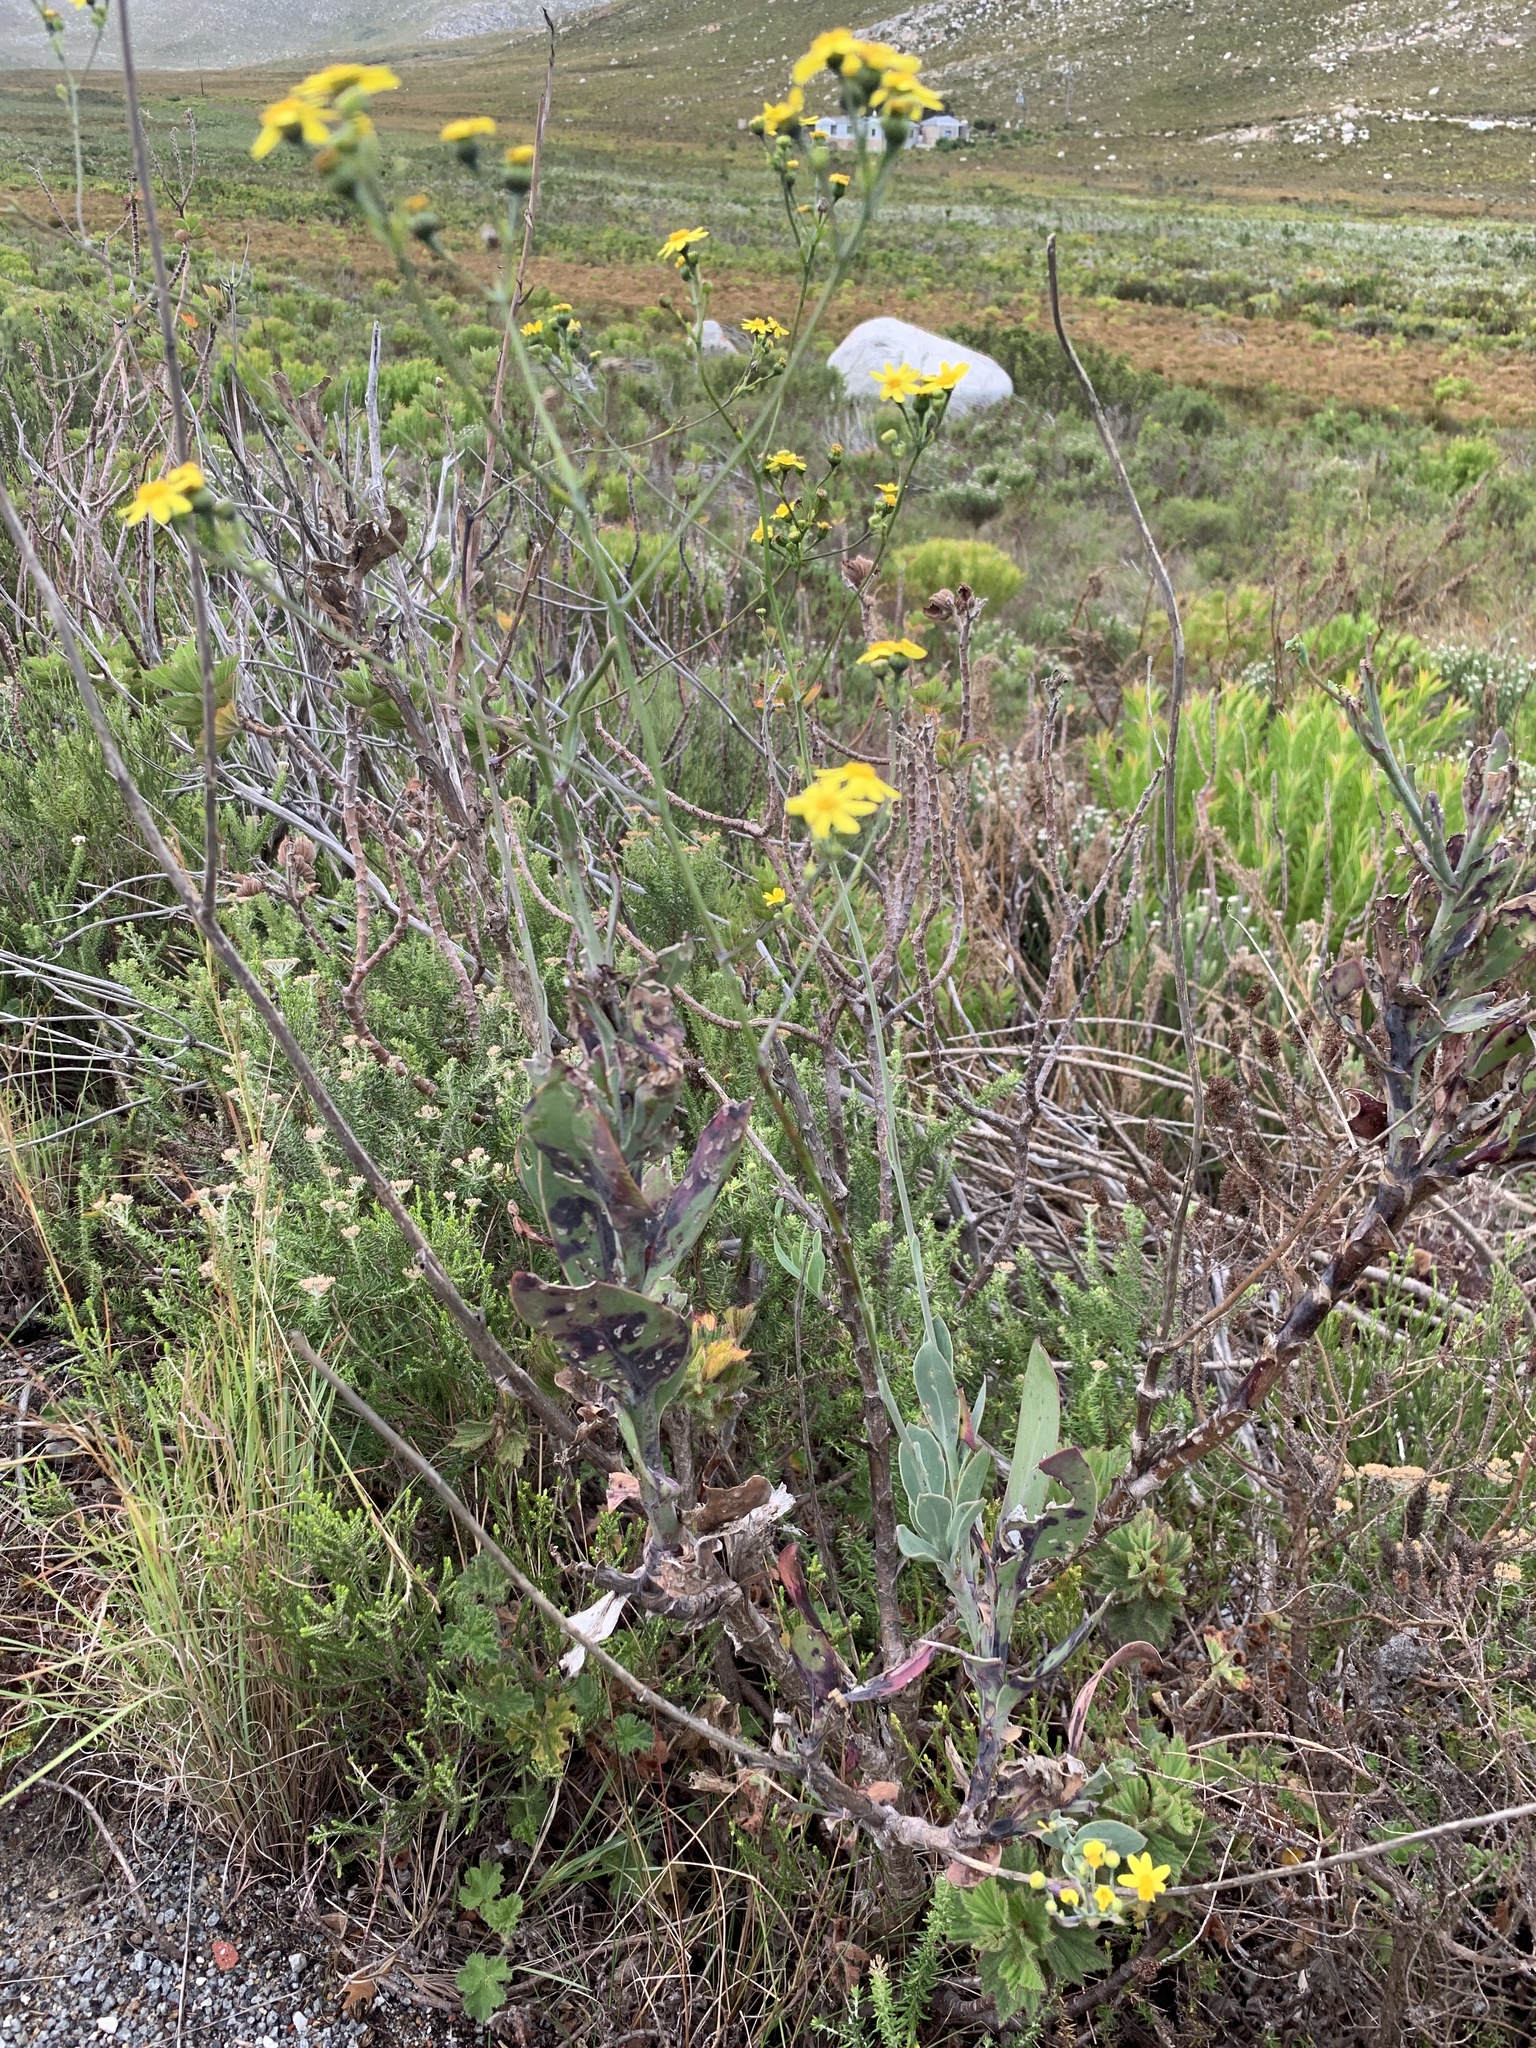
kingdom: Plantae
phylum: Tracheophyta
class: Magnoliopsida
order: Asterales
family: Asteraceae
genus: Othonna
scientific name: Othonna quinquedentata
